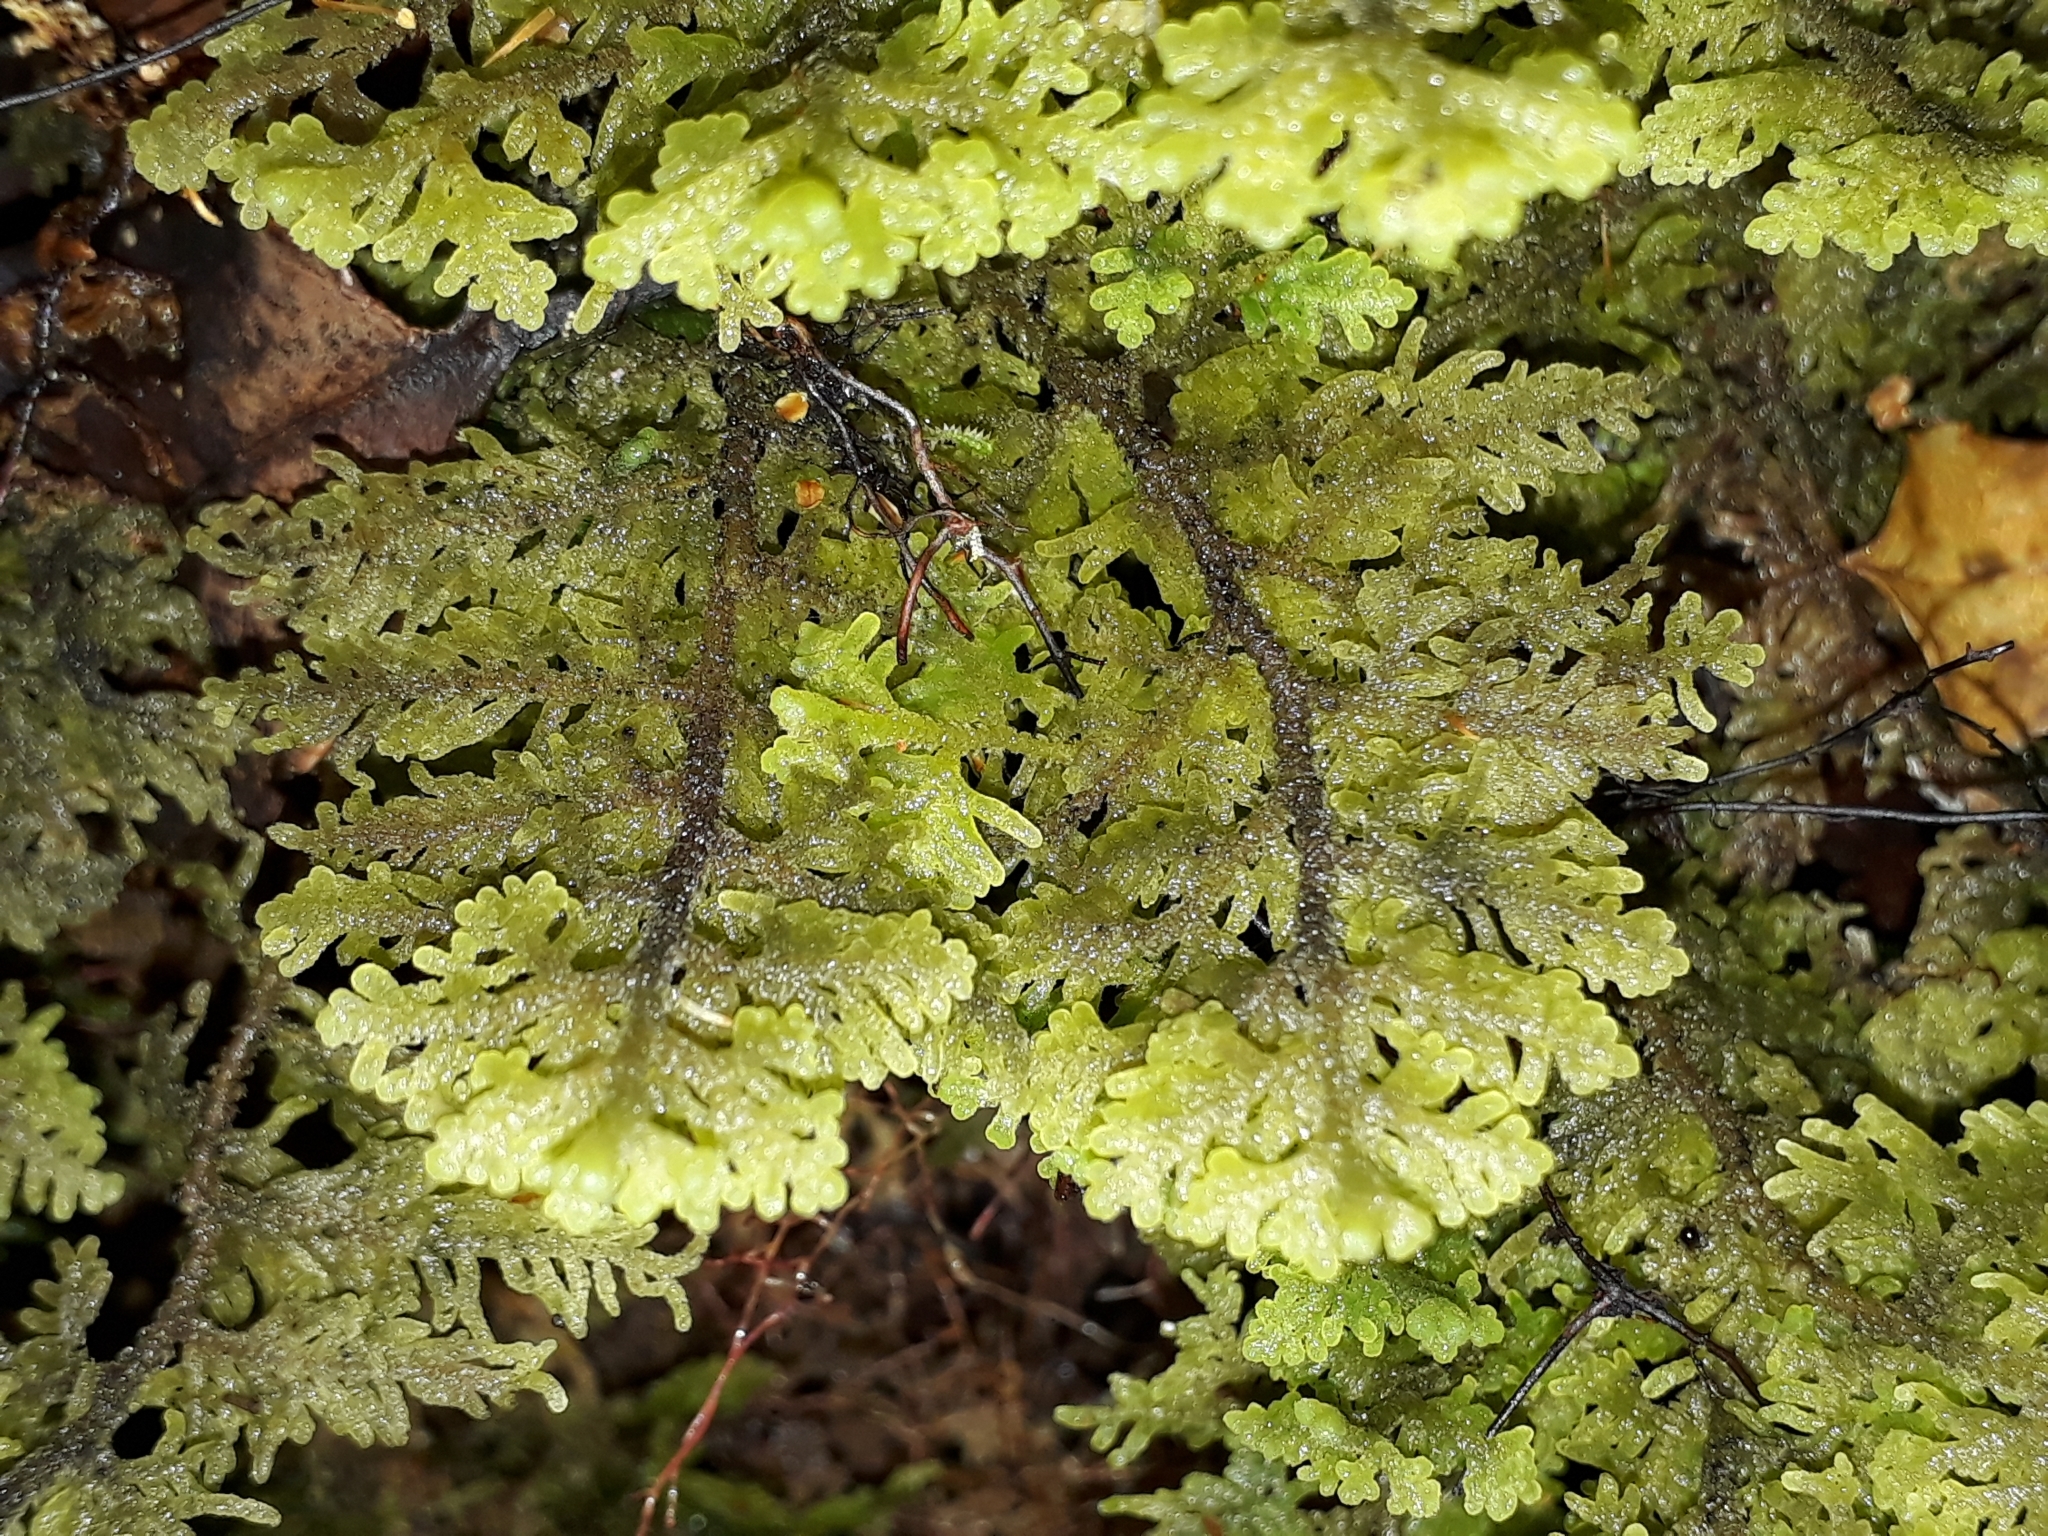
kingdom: Plantae
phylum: Marchantiophyta
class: Jungermanniopsida
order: Jungermanniales
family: Trichocoleaceae
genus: Trichocolea
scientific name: Trichocolea mollissima
